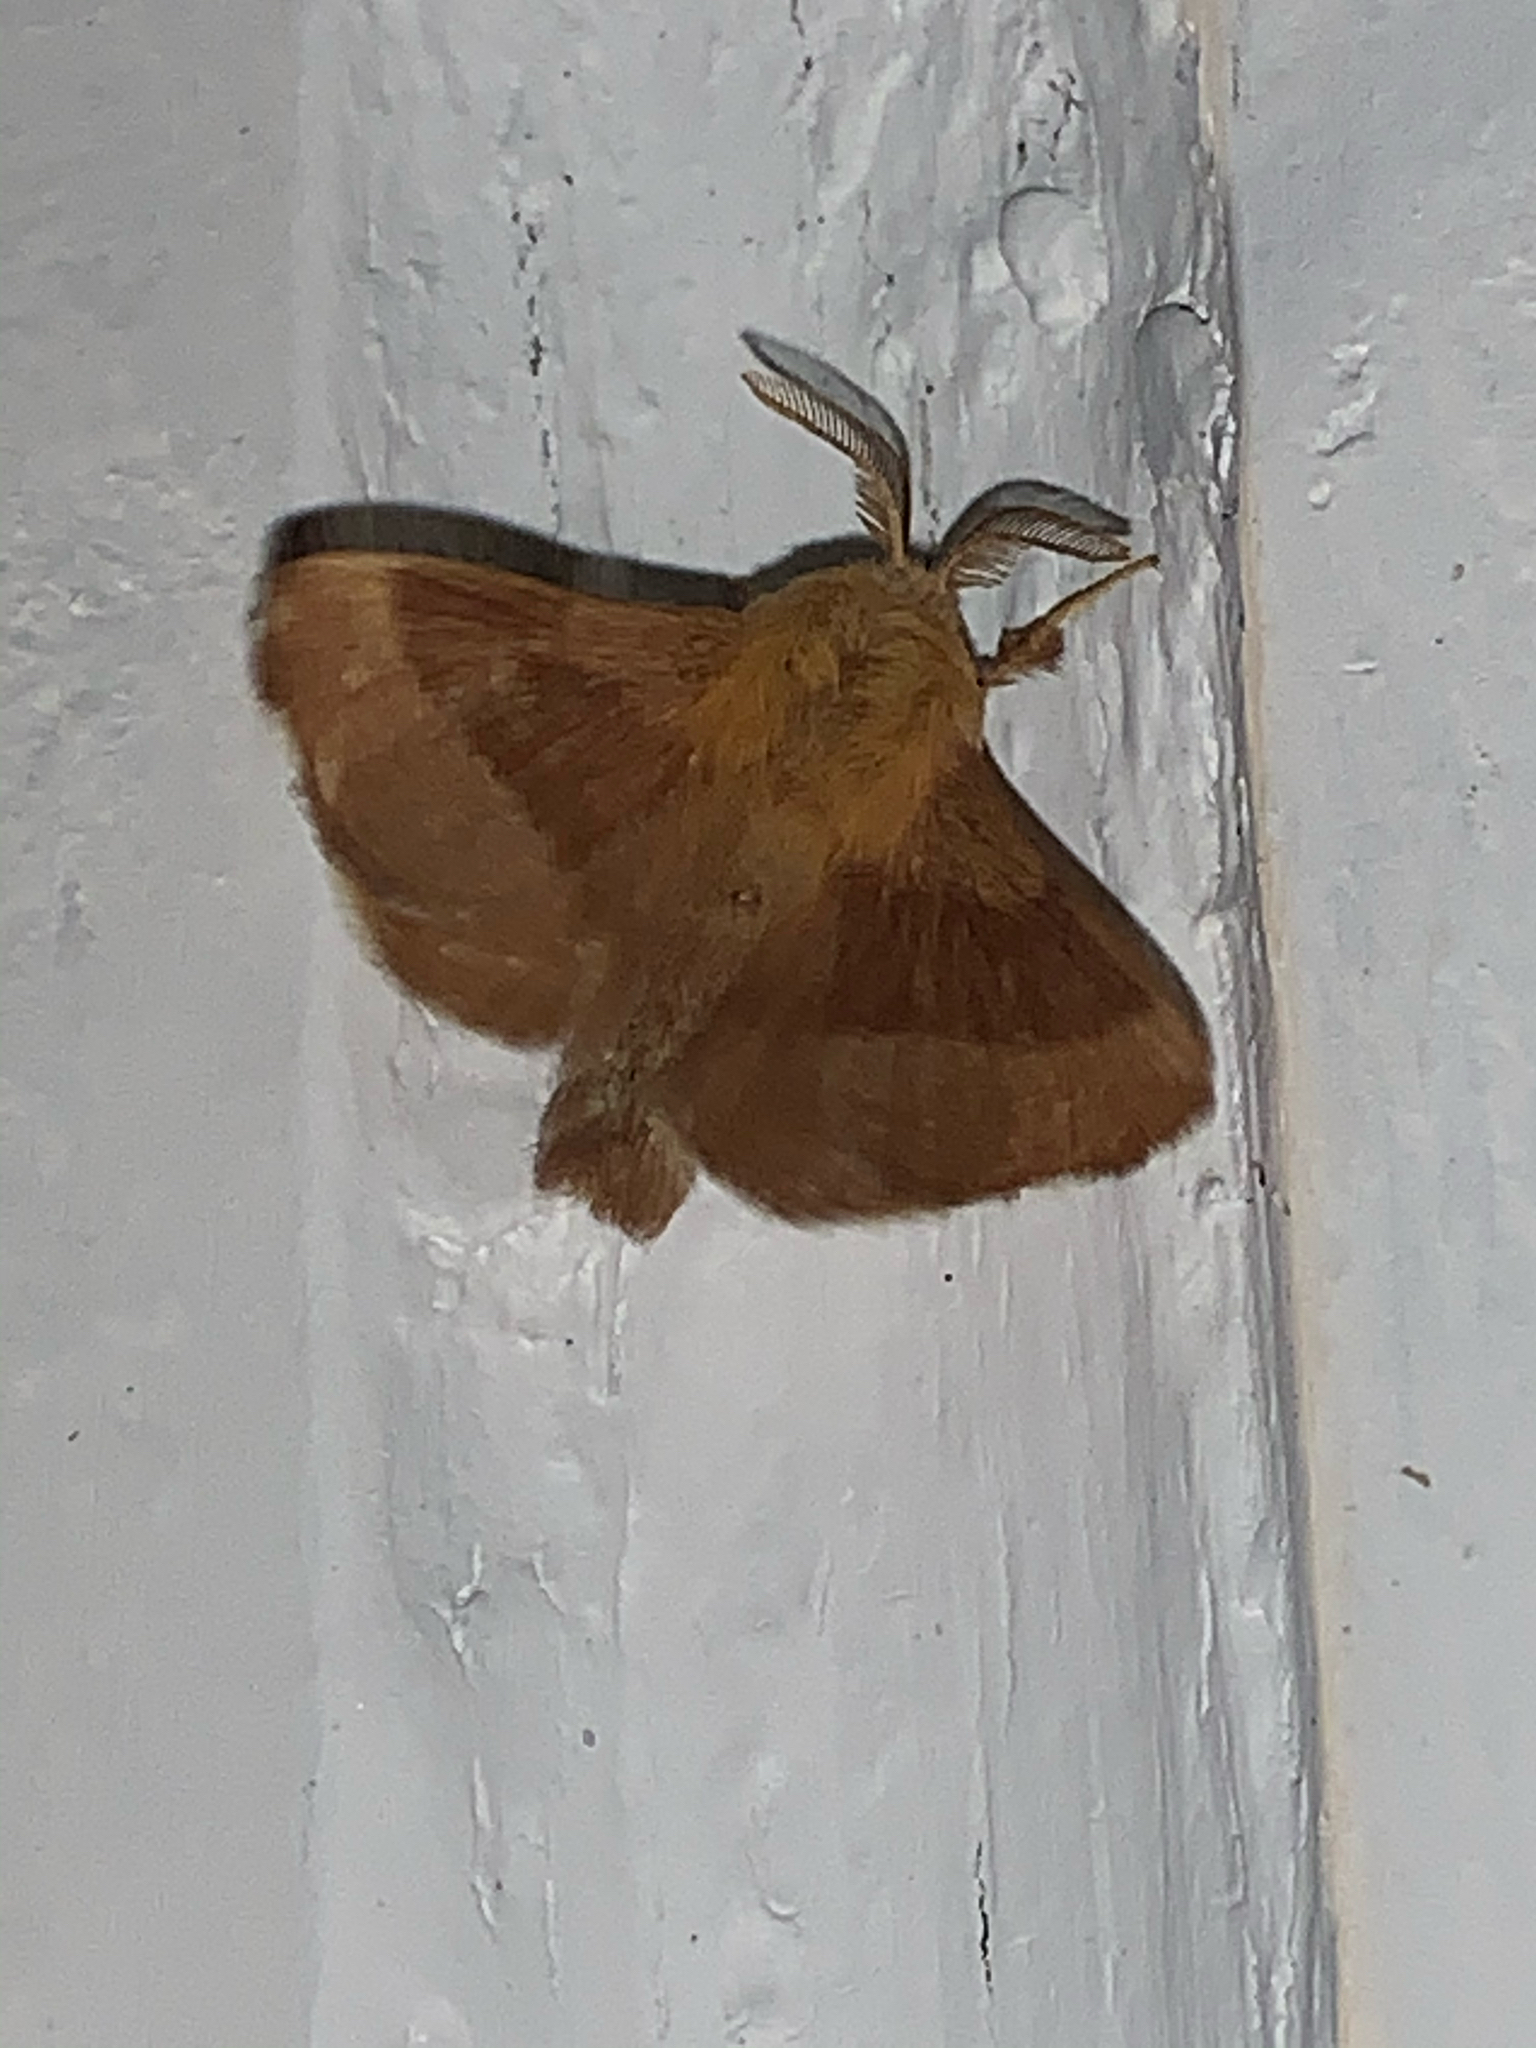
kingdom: Animalia
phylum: Arthropoda
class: Insecta
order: Lepidoptera
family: Lasiocampidae
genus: Malacosoma
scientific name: Malacosoma disstria
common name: Forest tent caterpillar
